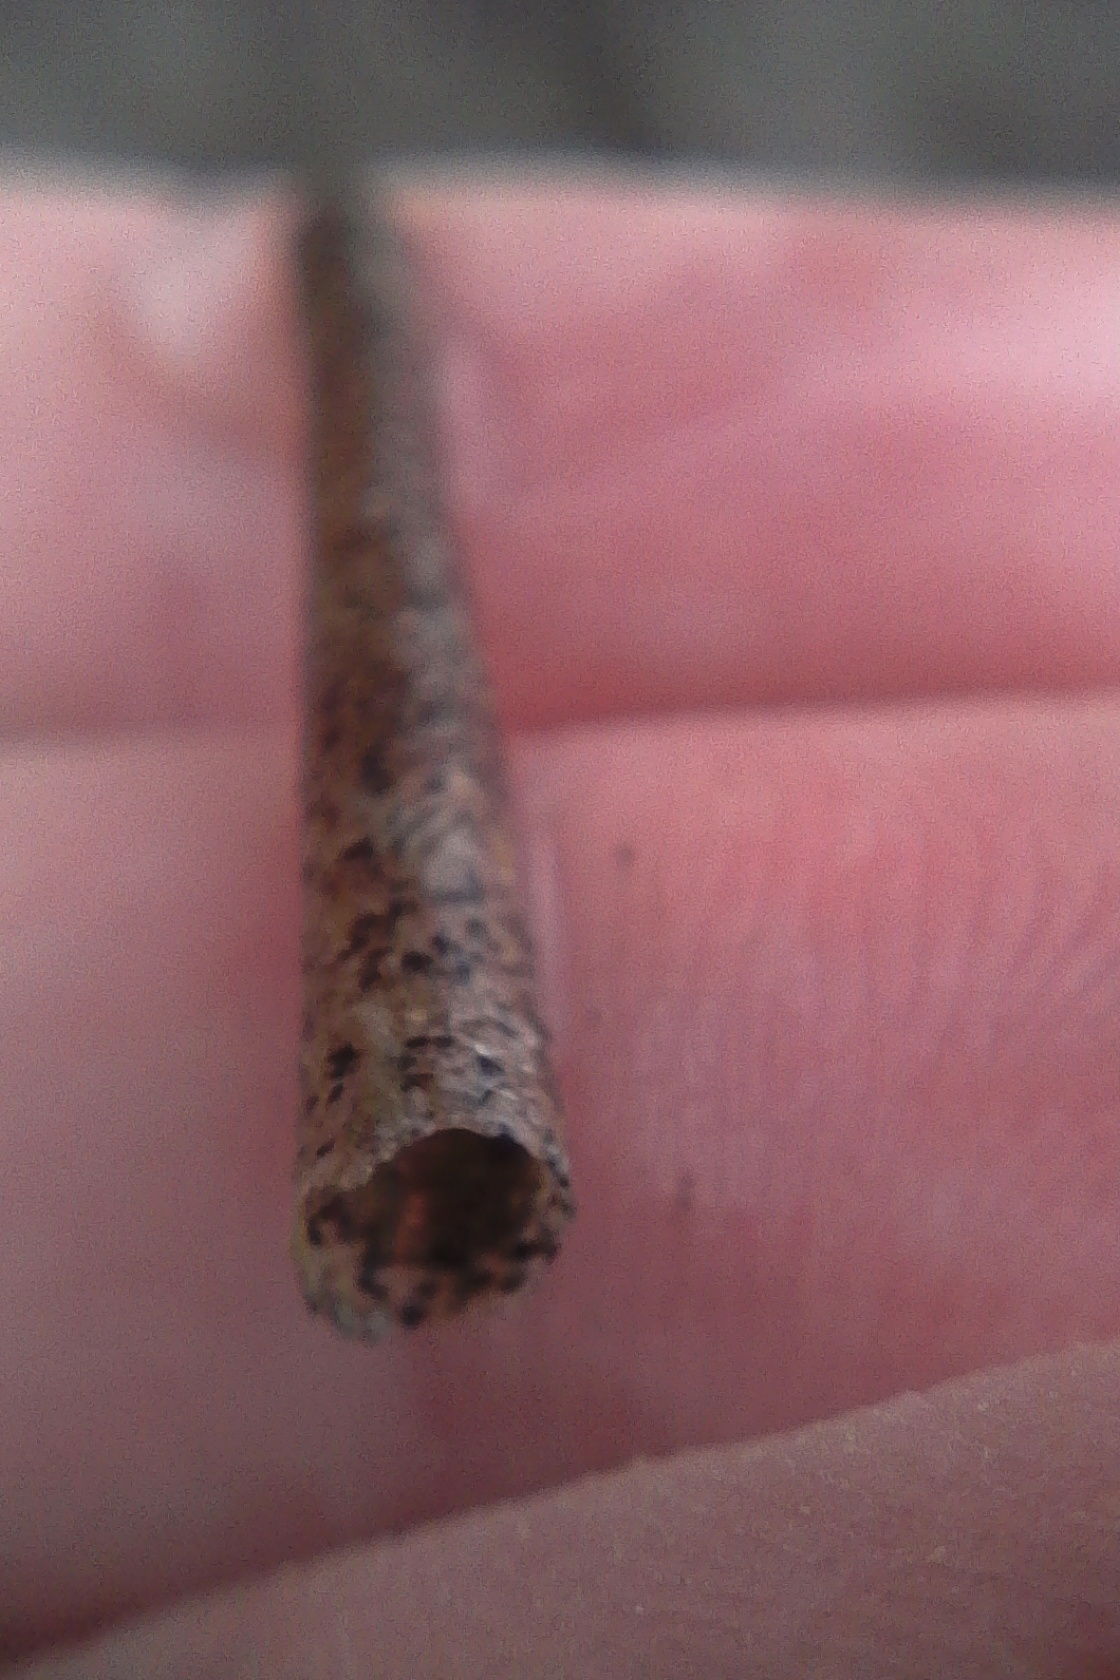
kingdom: Animalia
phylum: Annelida
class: Polychaeta
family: Pectinariidae
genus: Lagis
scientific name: Lagis australis
